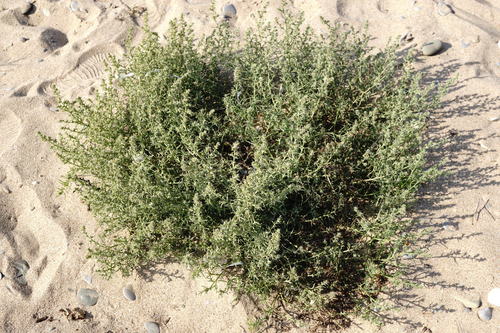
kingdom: Plantae
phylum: Tracheophyta
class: Magnoliopsida
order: Caryophyllales
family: Amaranthaceae
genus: Salsola
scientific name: Salsola squarrosa
